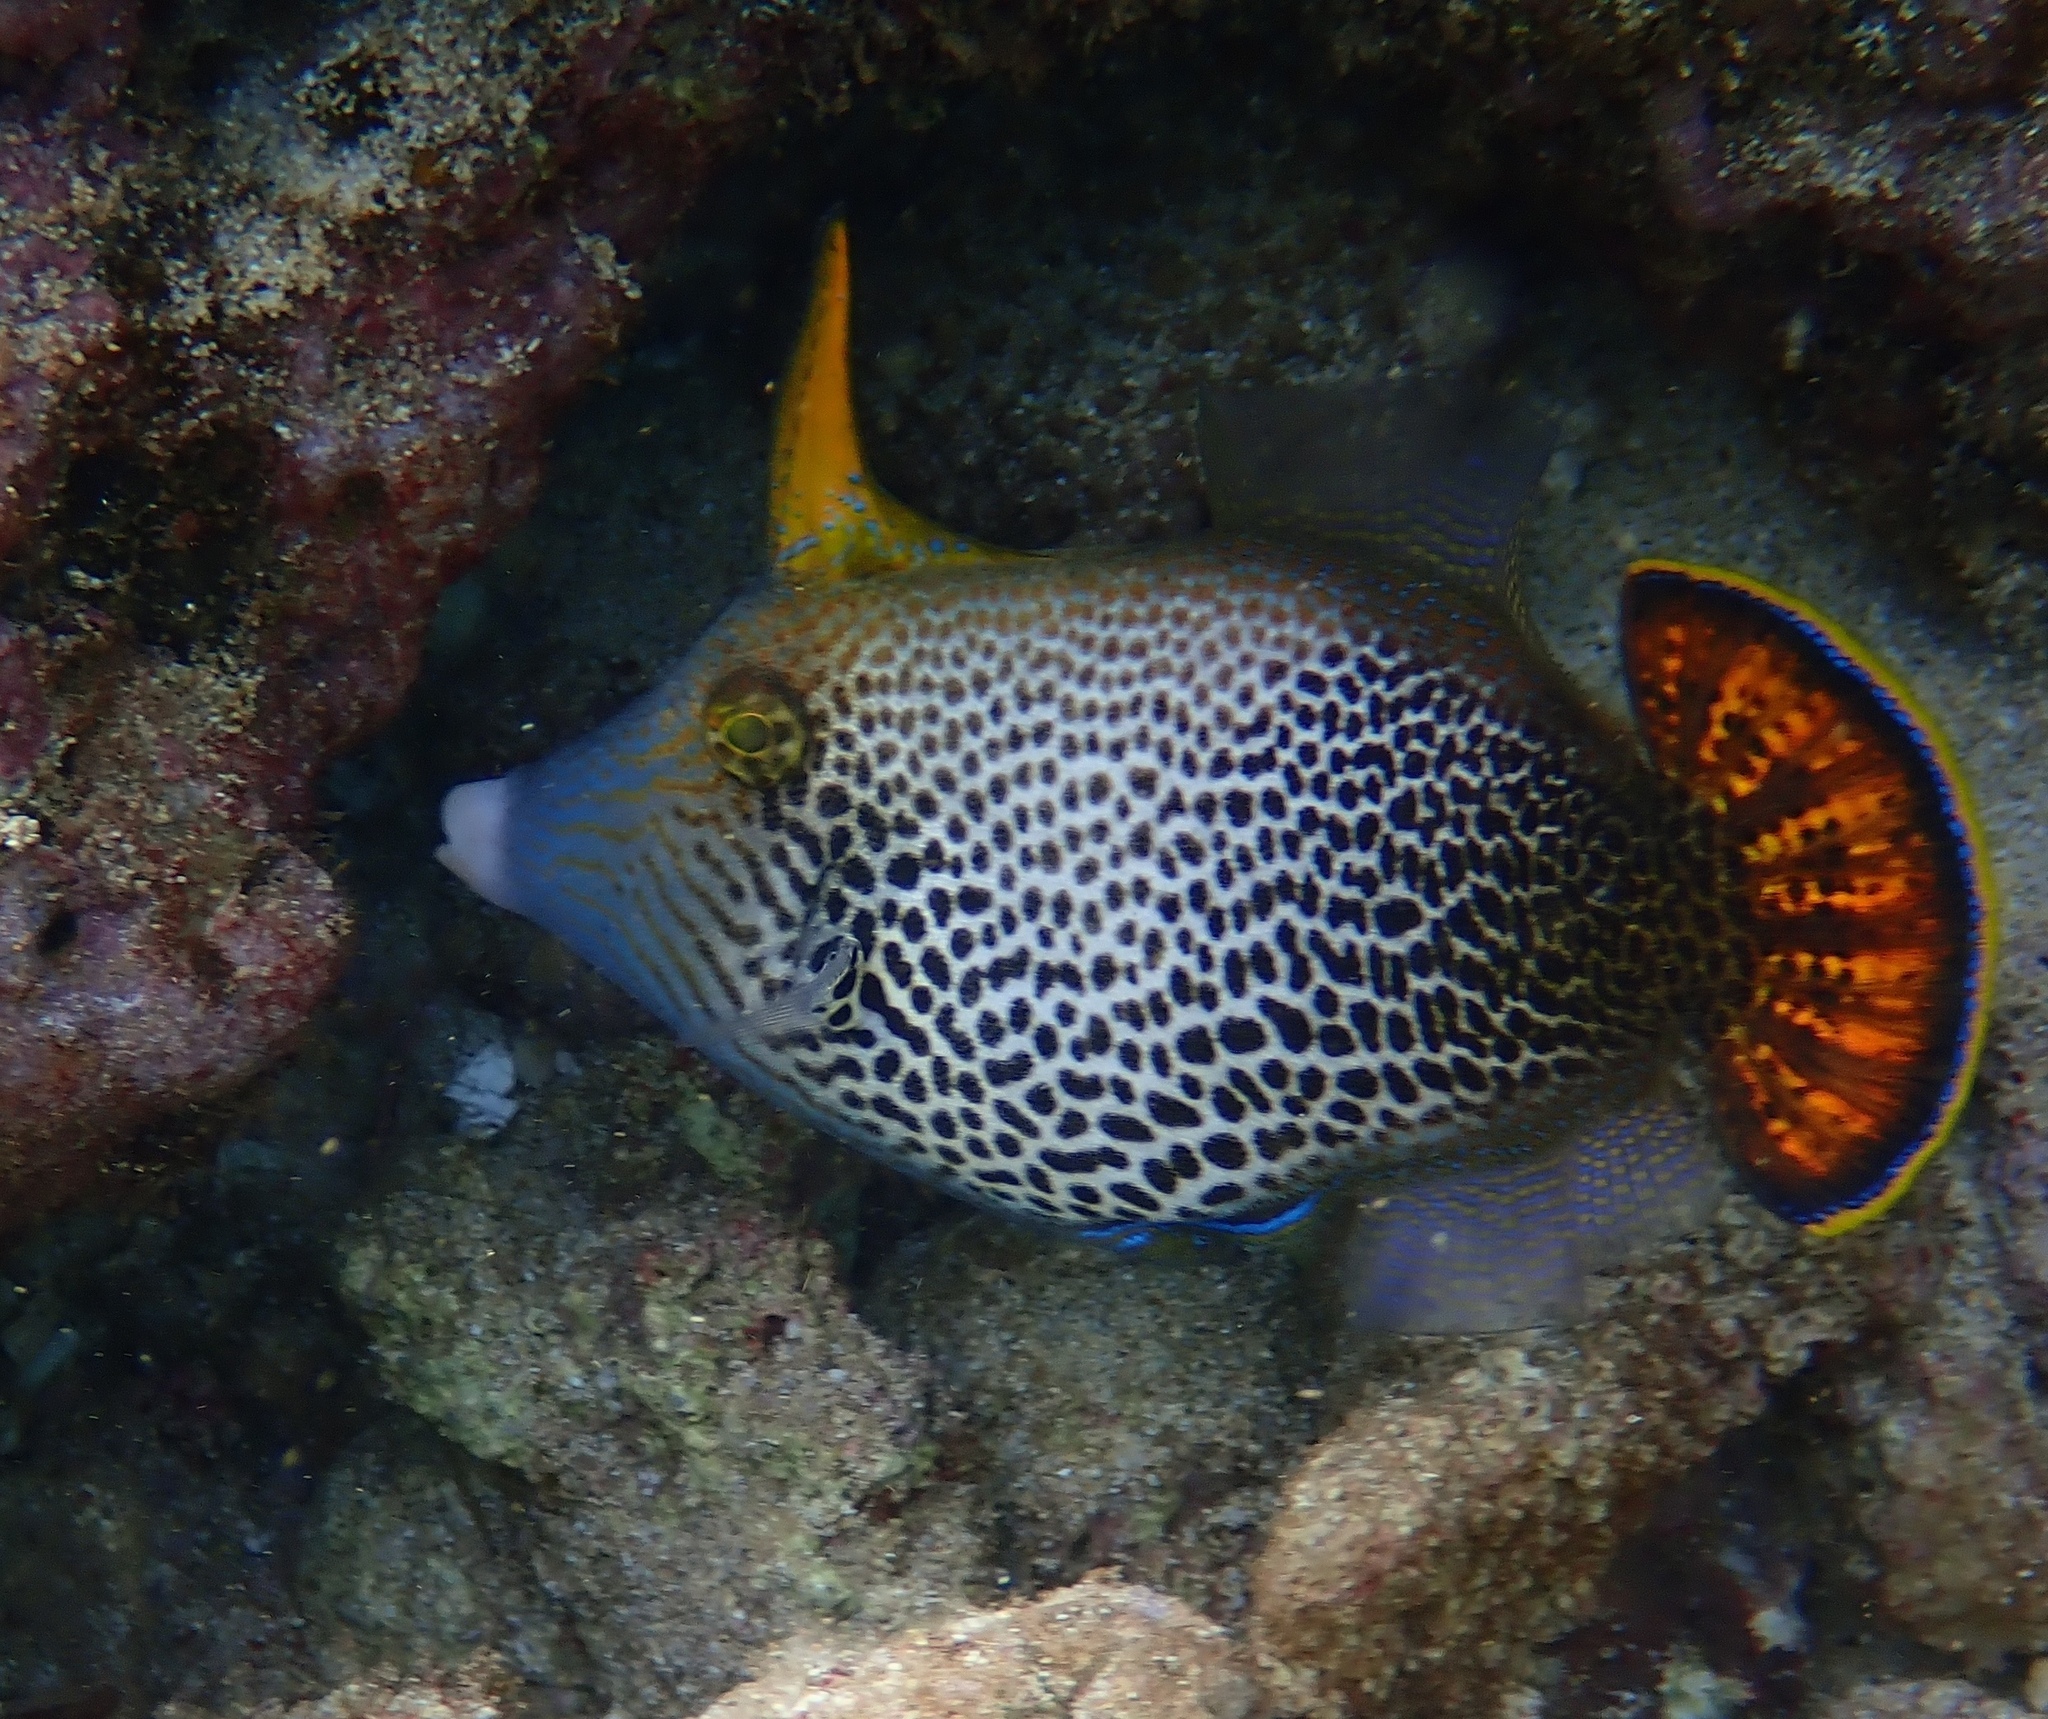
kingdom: Animalia
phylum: Chordata
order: Tetraodontiformes
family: Monacanthidae
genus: Pervagor
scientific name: Pervagor spilosoma
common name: Fantail filefish
